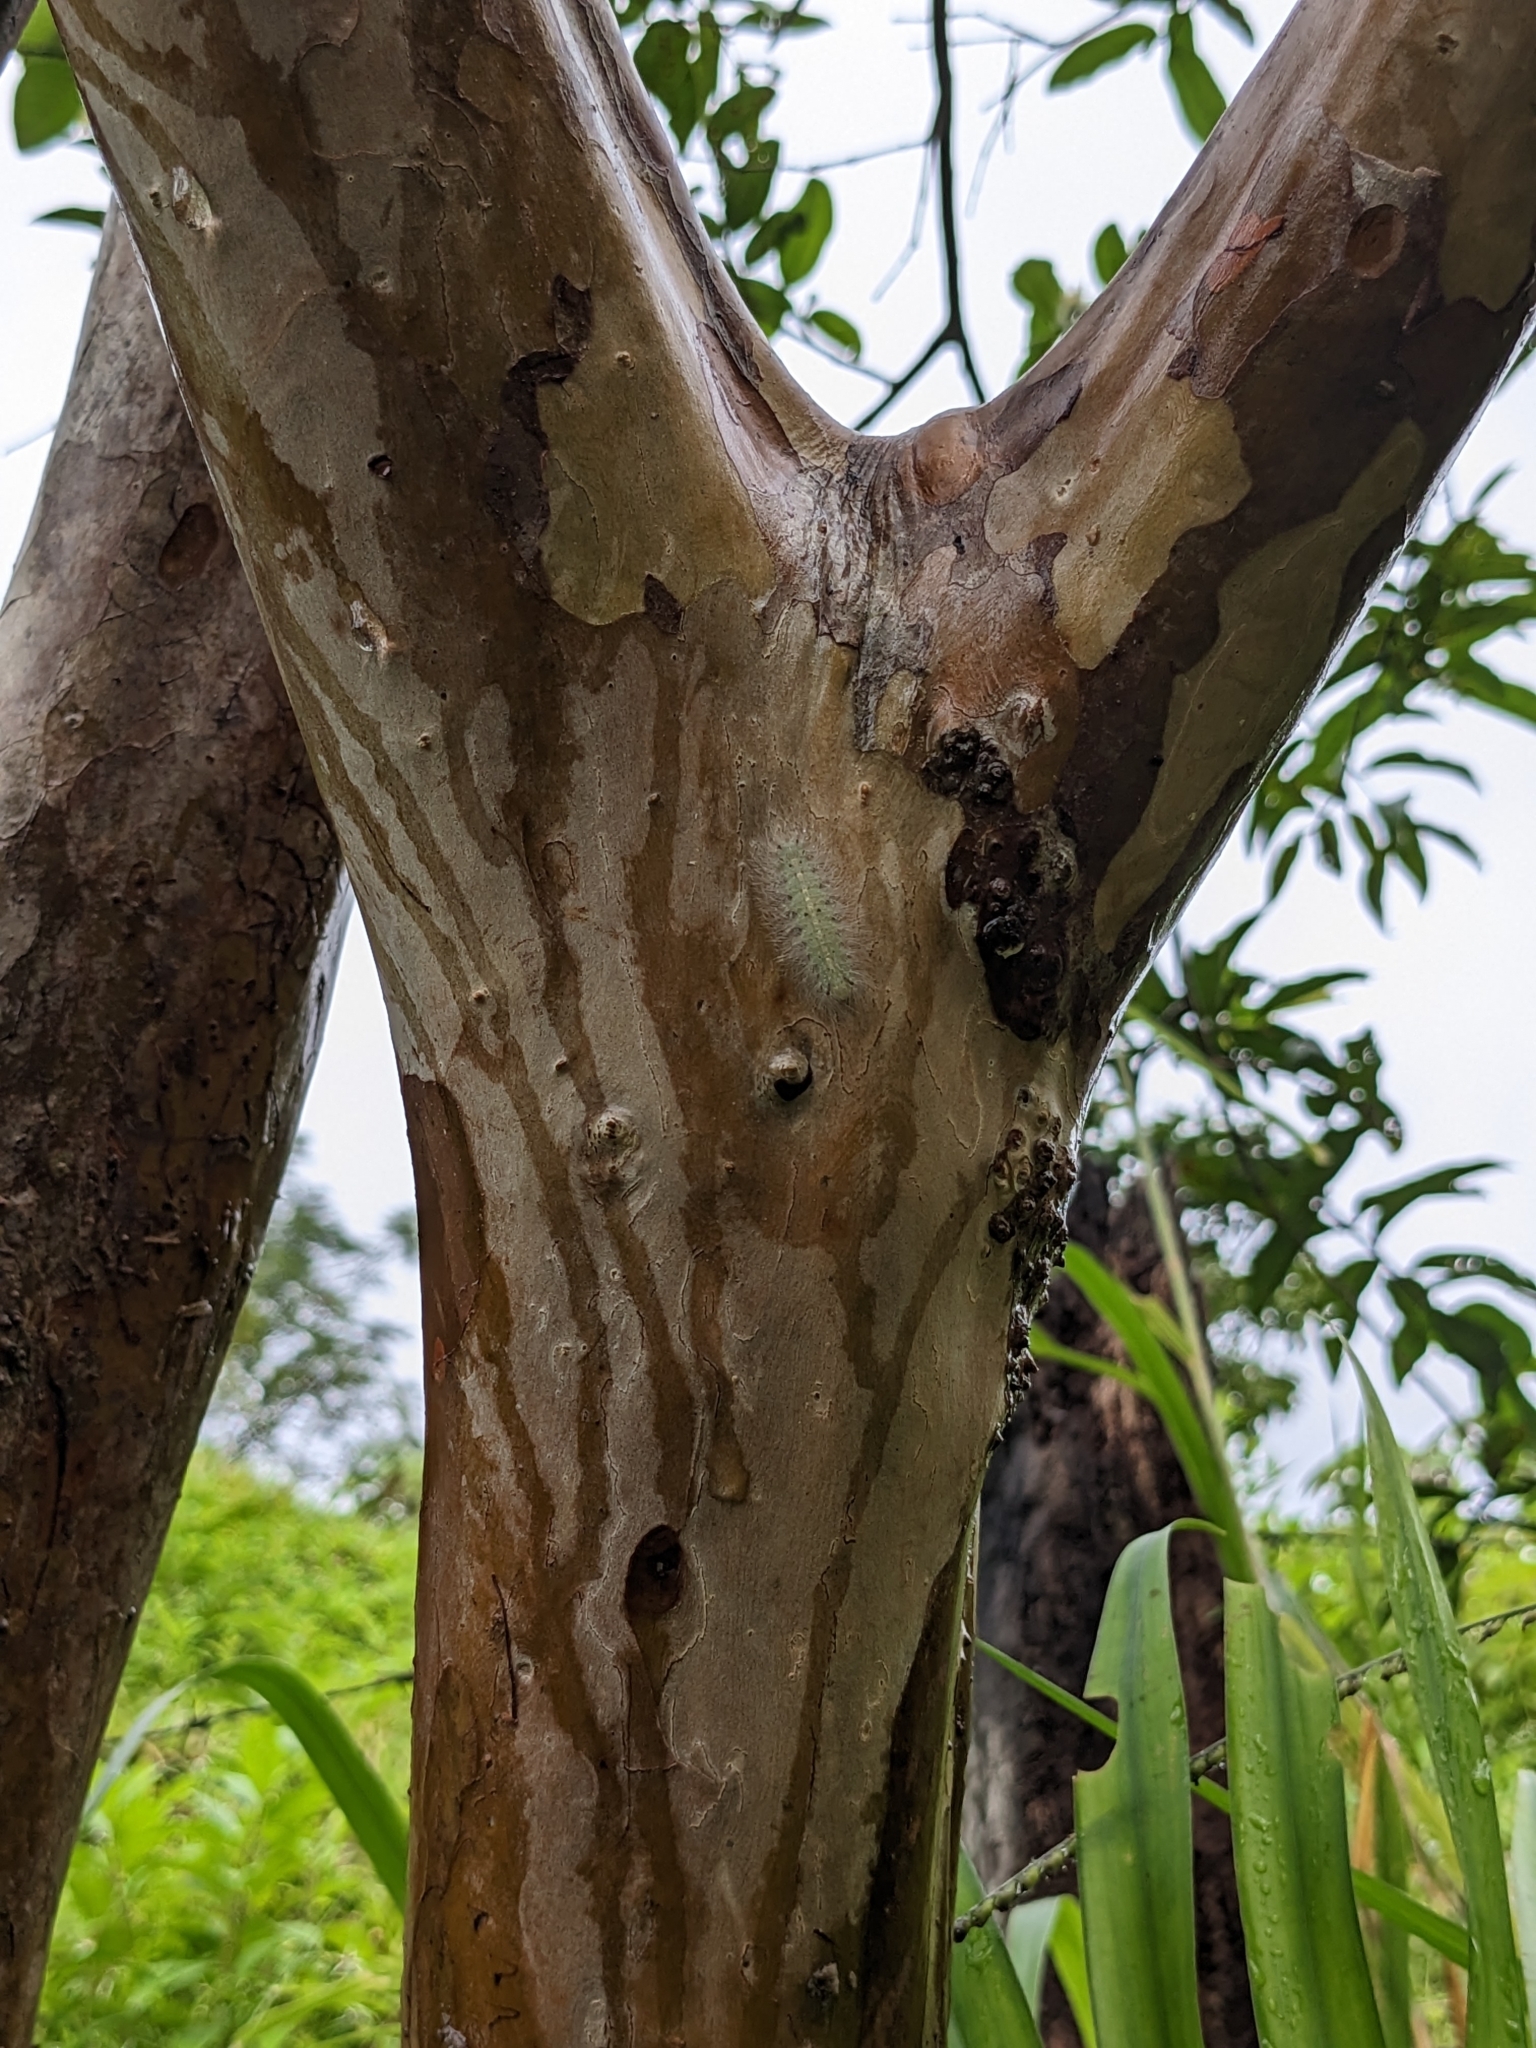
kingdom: Plantae
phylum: Tracheophyta
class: Magnoliopsida
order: Myrtales
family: Myrtaceae
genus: Psidium
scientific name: Psidium guajava
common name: Guava
